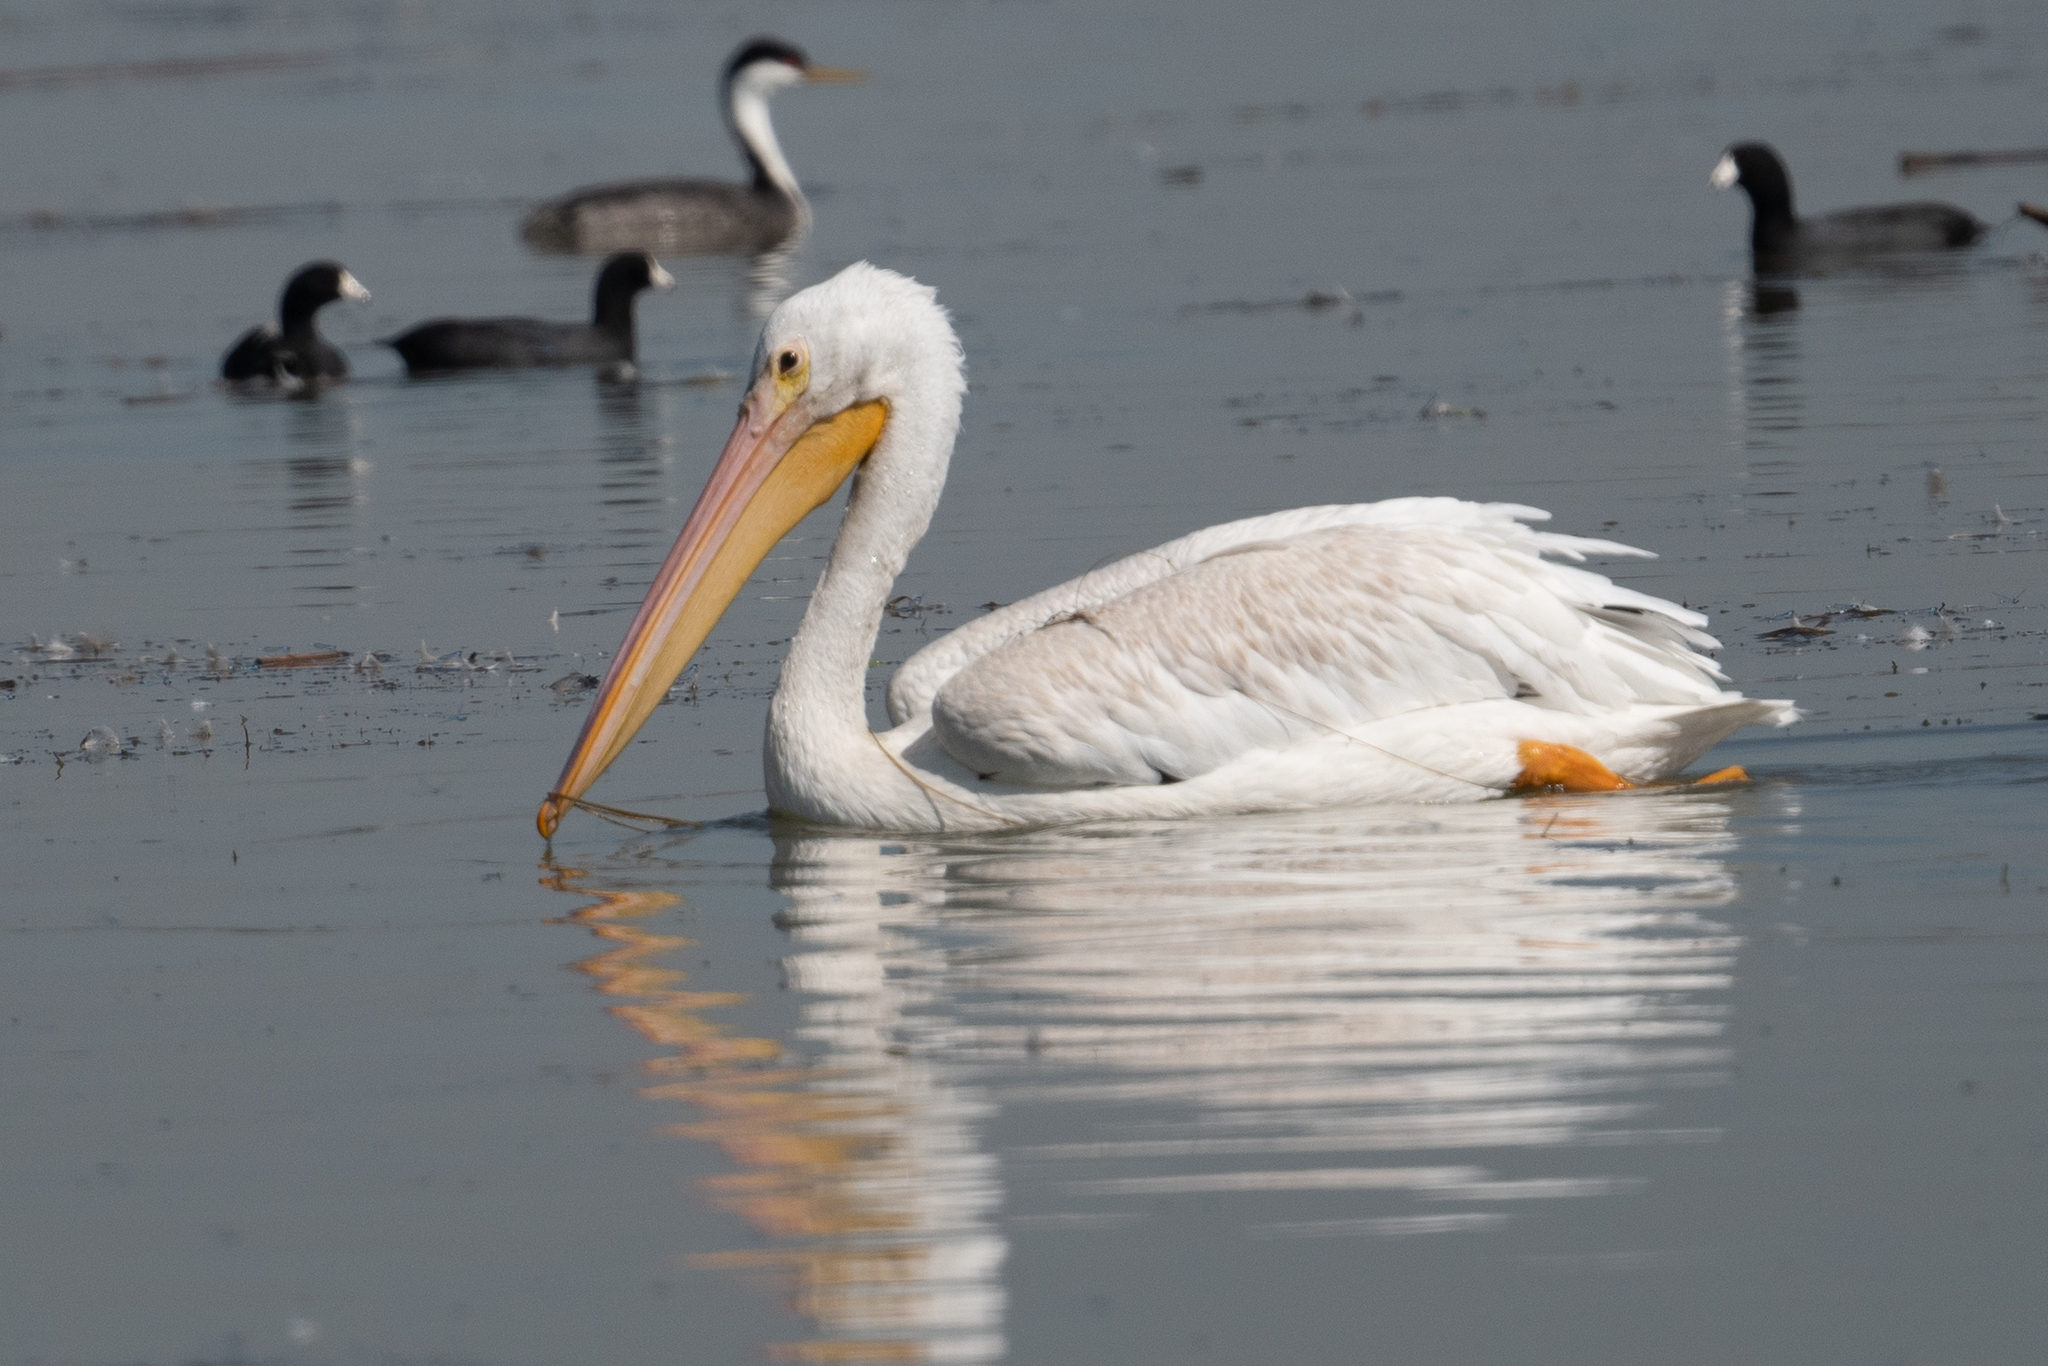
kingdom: Animalia
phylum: Chordata
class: Aves
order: Pelecaniformes
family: Pelecanidae
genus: Pelecanus
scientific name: Pelecanus erythrorhynchos
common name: American white pelican
